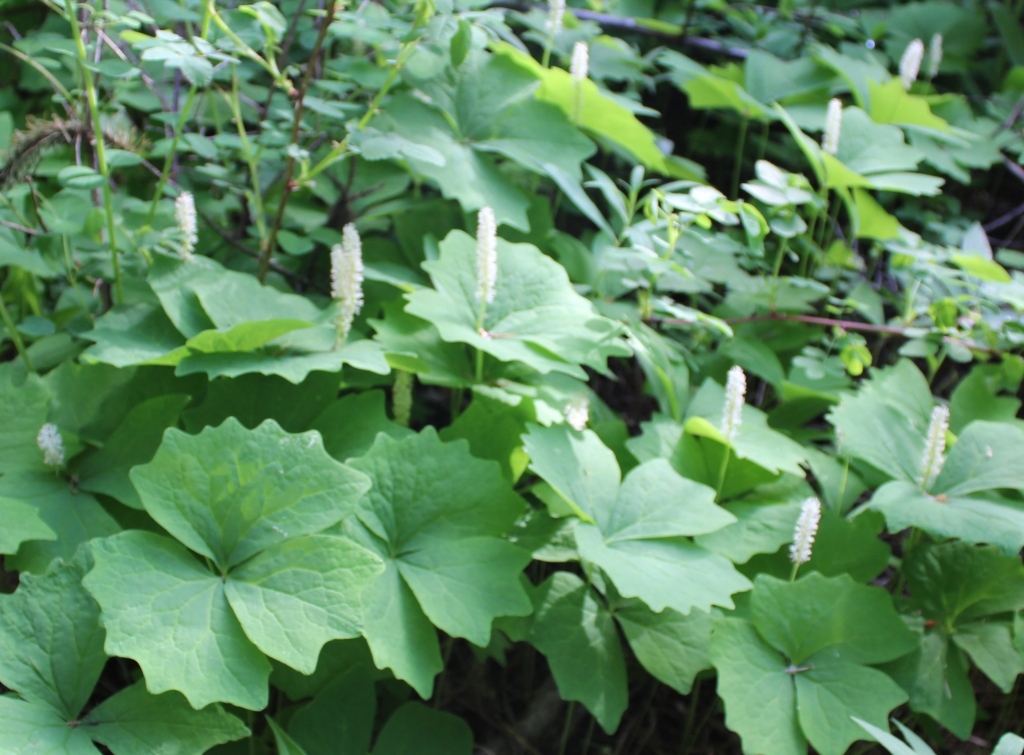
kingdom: Plantae
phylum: Tracheophyta
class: Magnoliopsida
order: Ranunculales
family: Berberidaceae
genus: Achlys
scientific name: Achlys triphylla
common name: Vanilla-leaf
